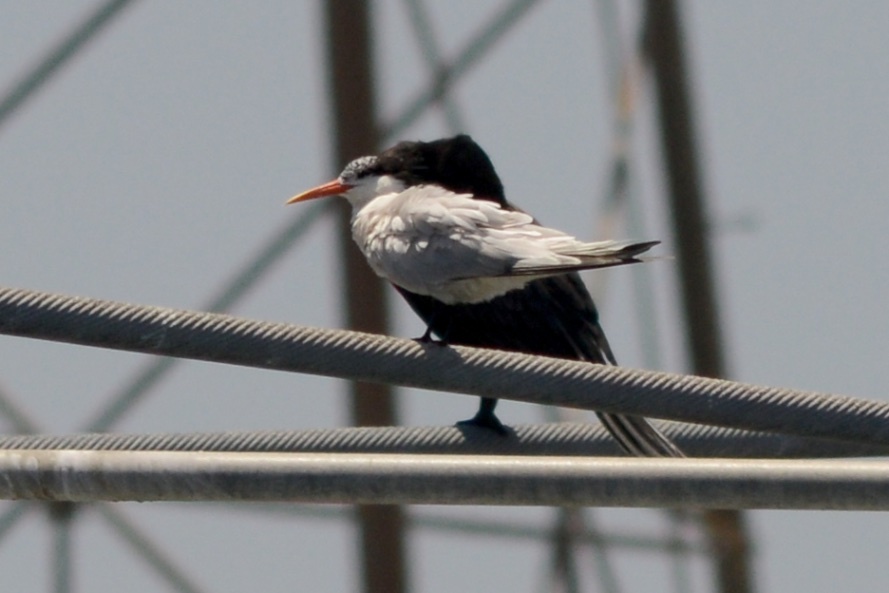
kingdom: Animalia
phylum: Chordata
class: Aves
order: Charadriiformes
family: Laridae
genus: Thalasseus
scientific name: Thalasseus elegans
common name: Elegant tern
